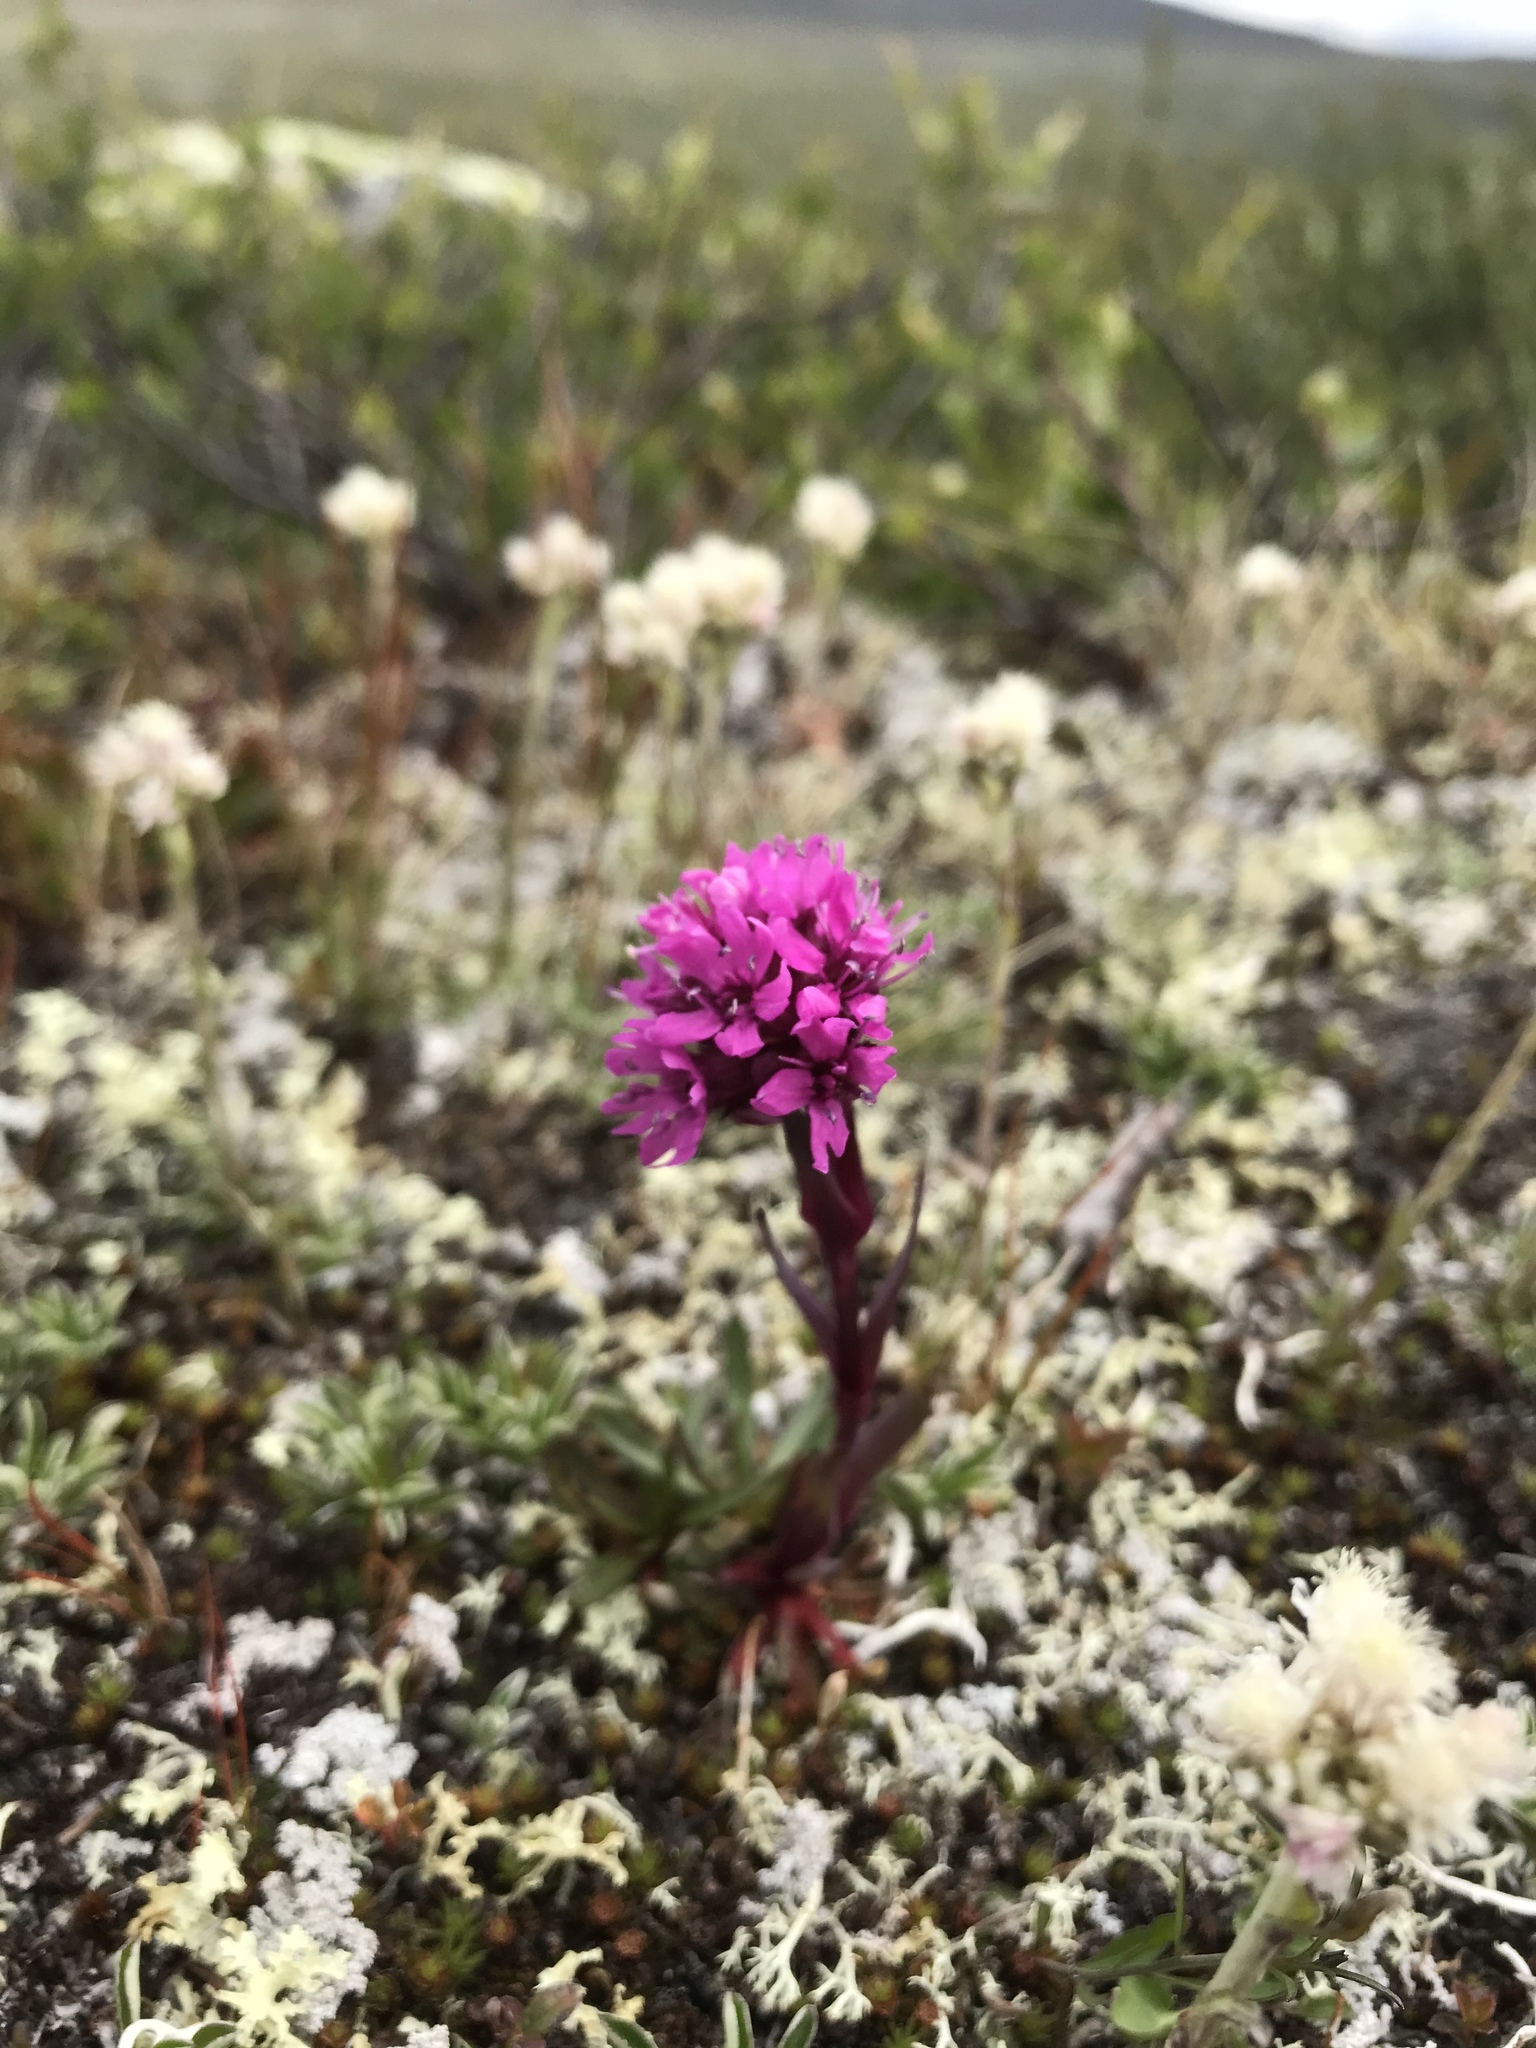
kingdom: Plantae
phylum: Tracheophyta
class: Magnoliopsida
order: Caryophyllales
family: Caryophyllaceae
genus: Viscaria
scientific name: Viscaria alpina
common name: Alpine campion
